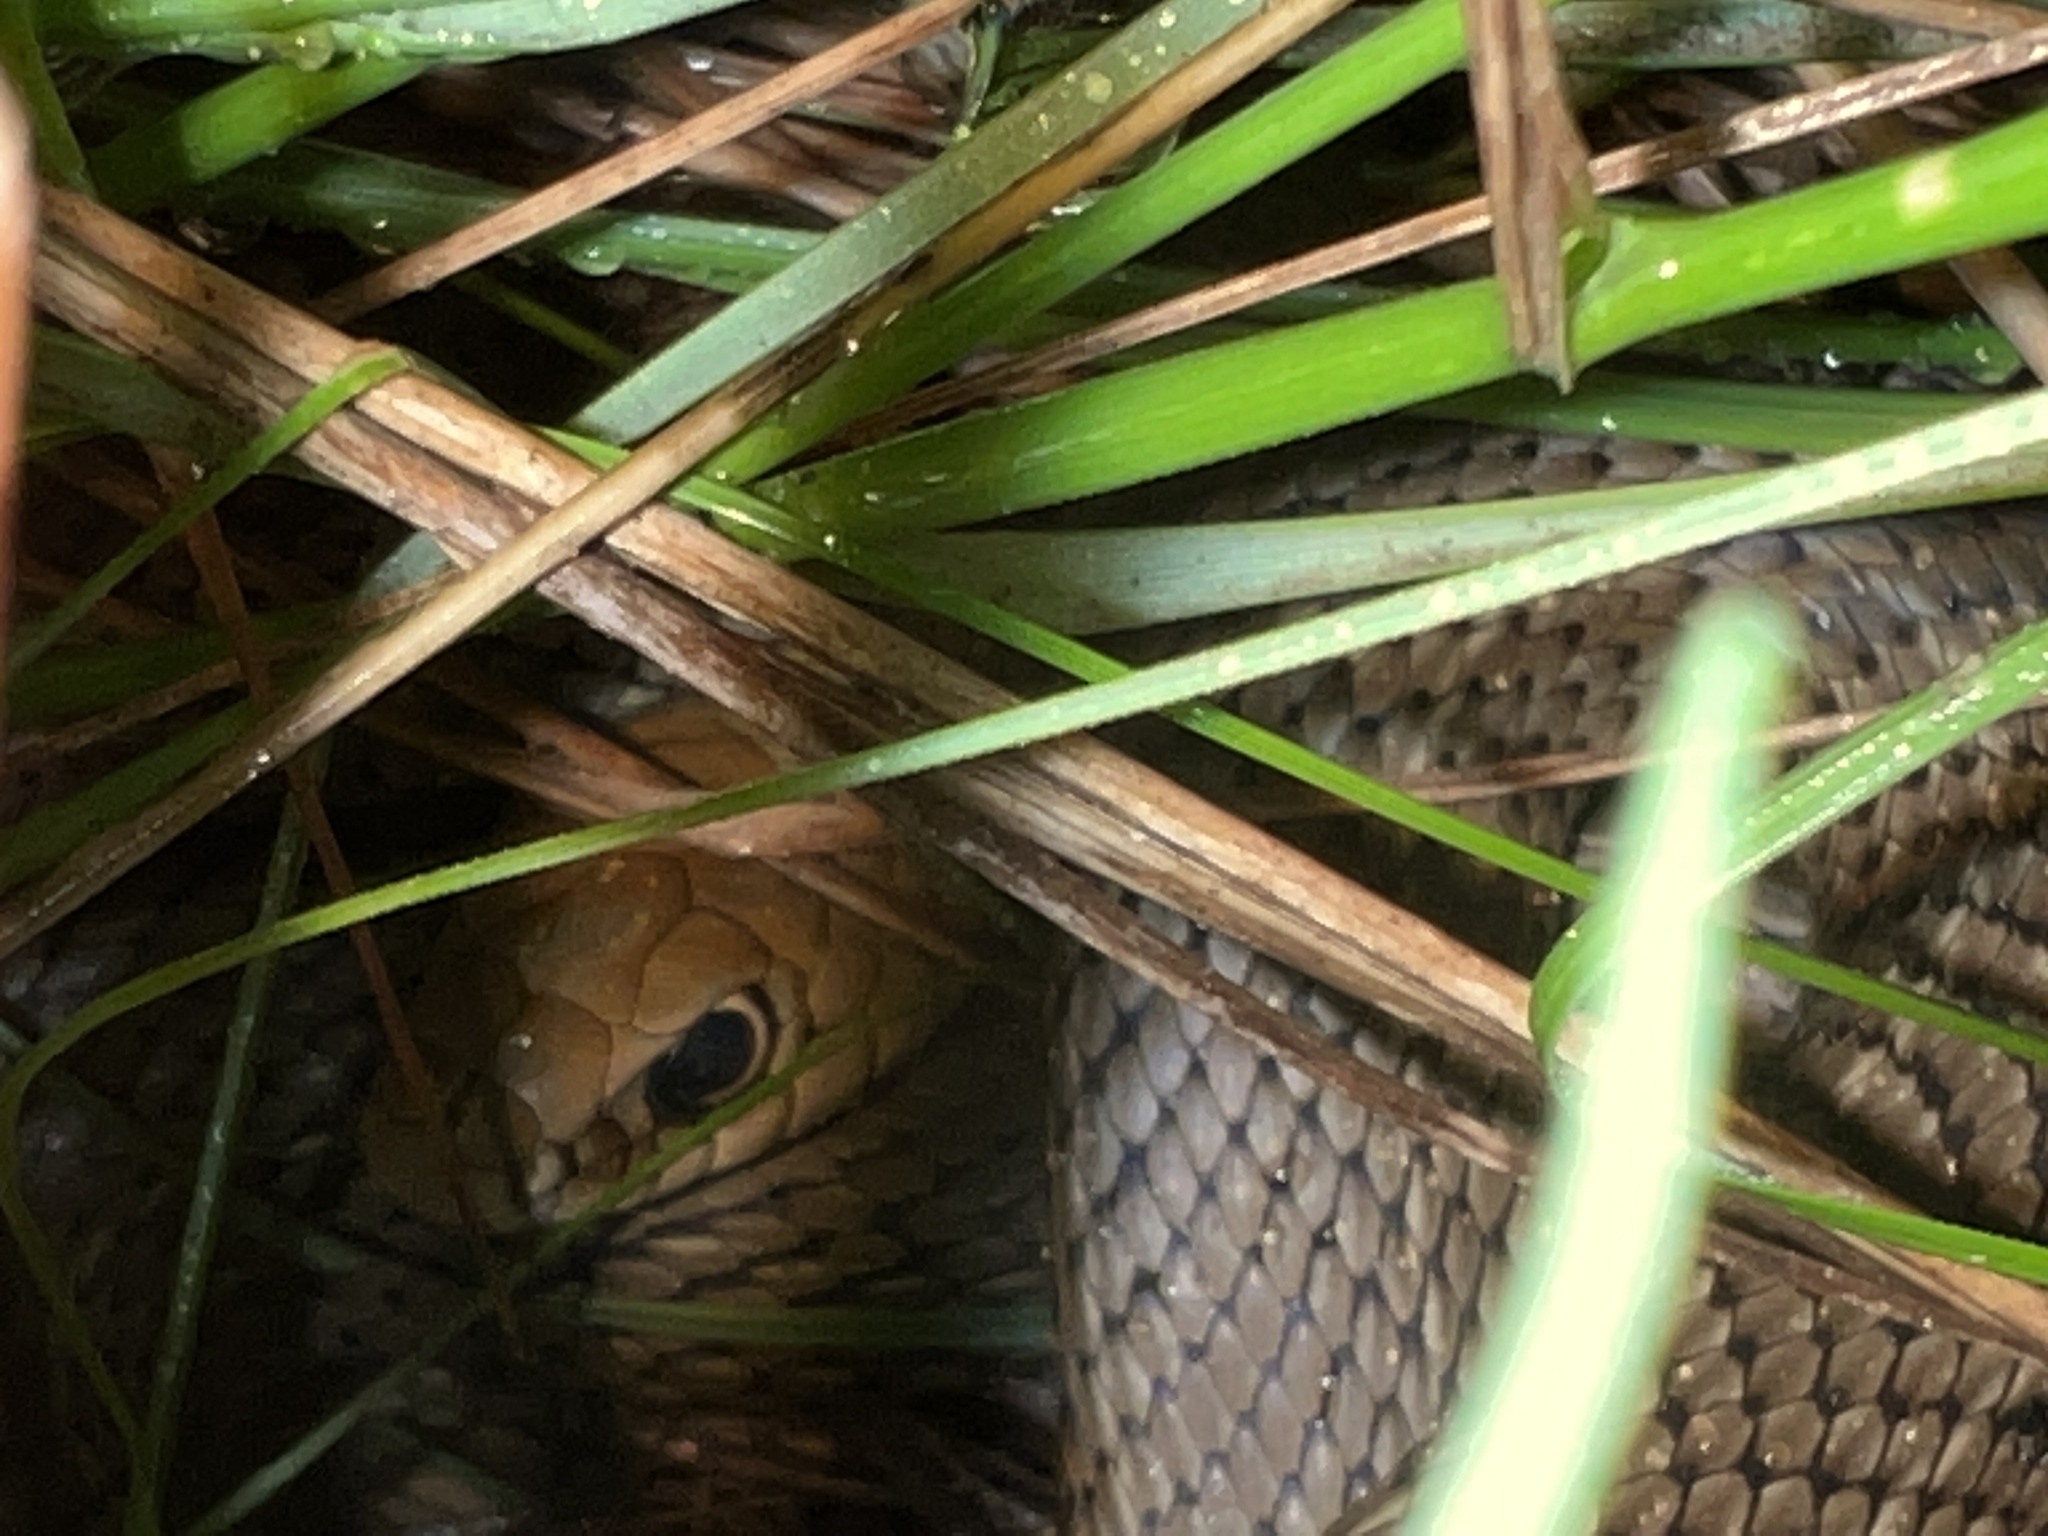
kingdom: Animalia
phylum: Chordata
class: Squamata
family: Colubridae
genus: Philodryas
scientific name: Philodryas patagoniensis
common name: Patagonia green racer
